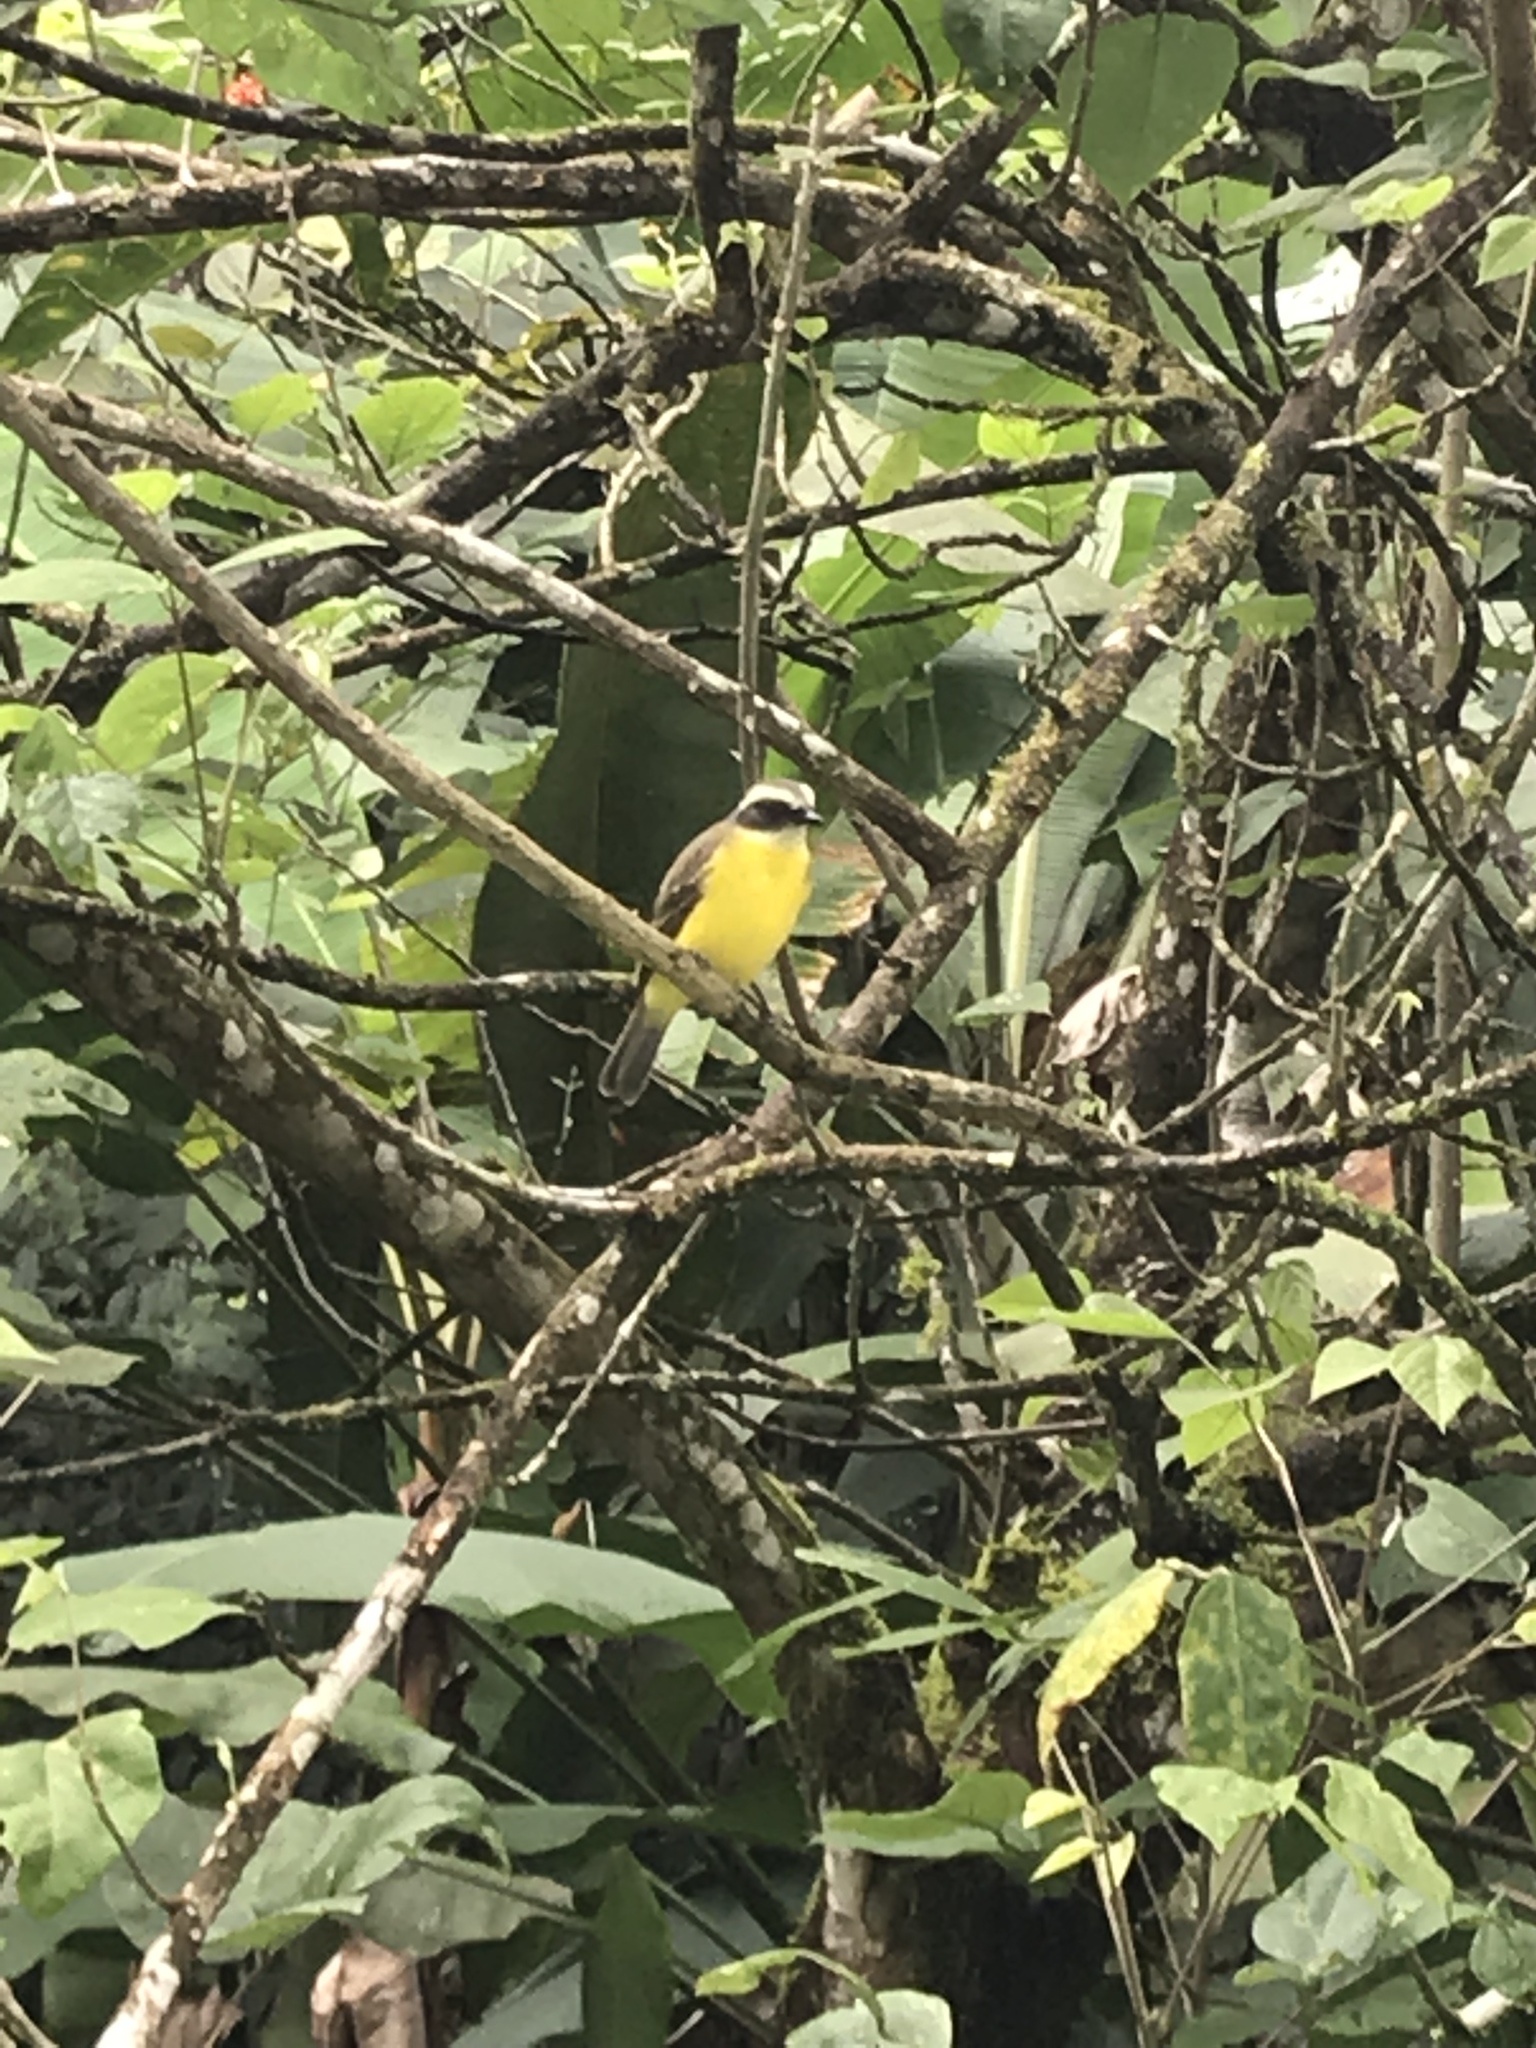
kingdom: Animalia
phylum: Chordata
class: Aves
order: Passeriformes
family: Tyrannidae
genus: Myiozetetes
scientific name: Myiozetetes similis
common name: Social flycatcher
